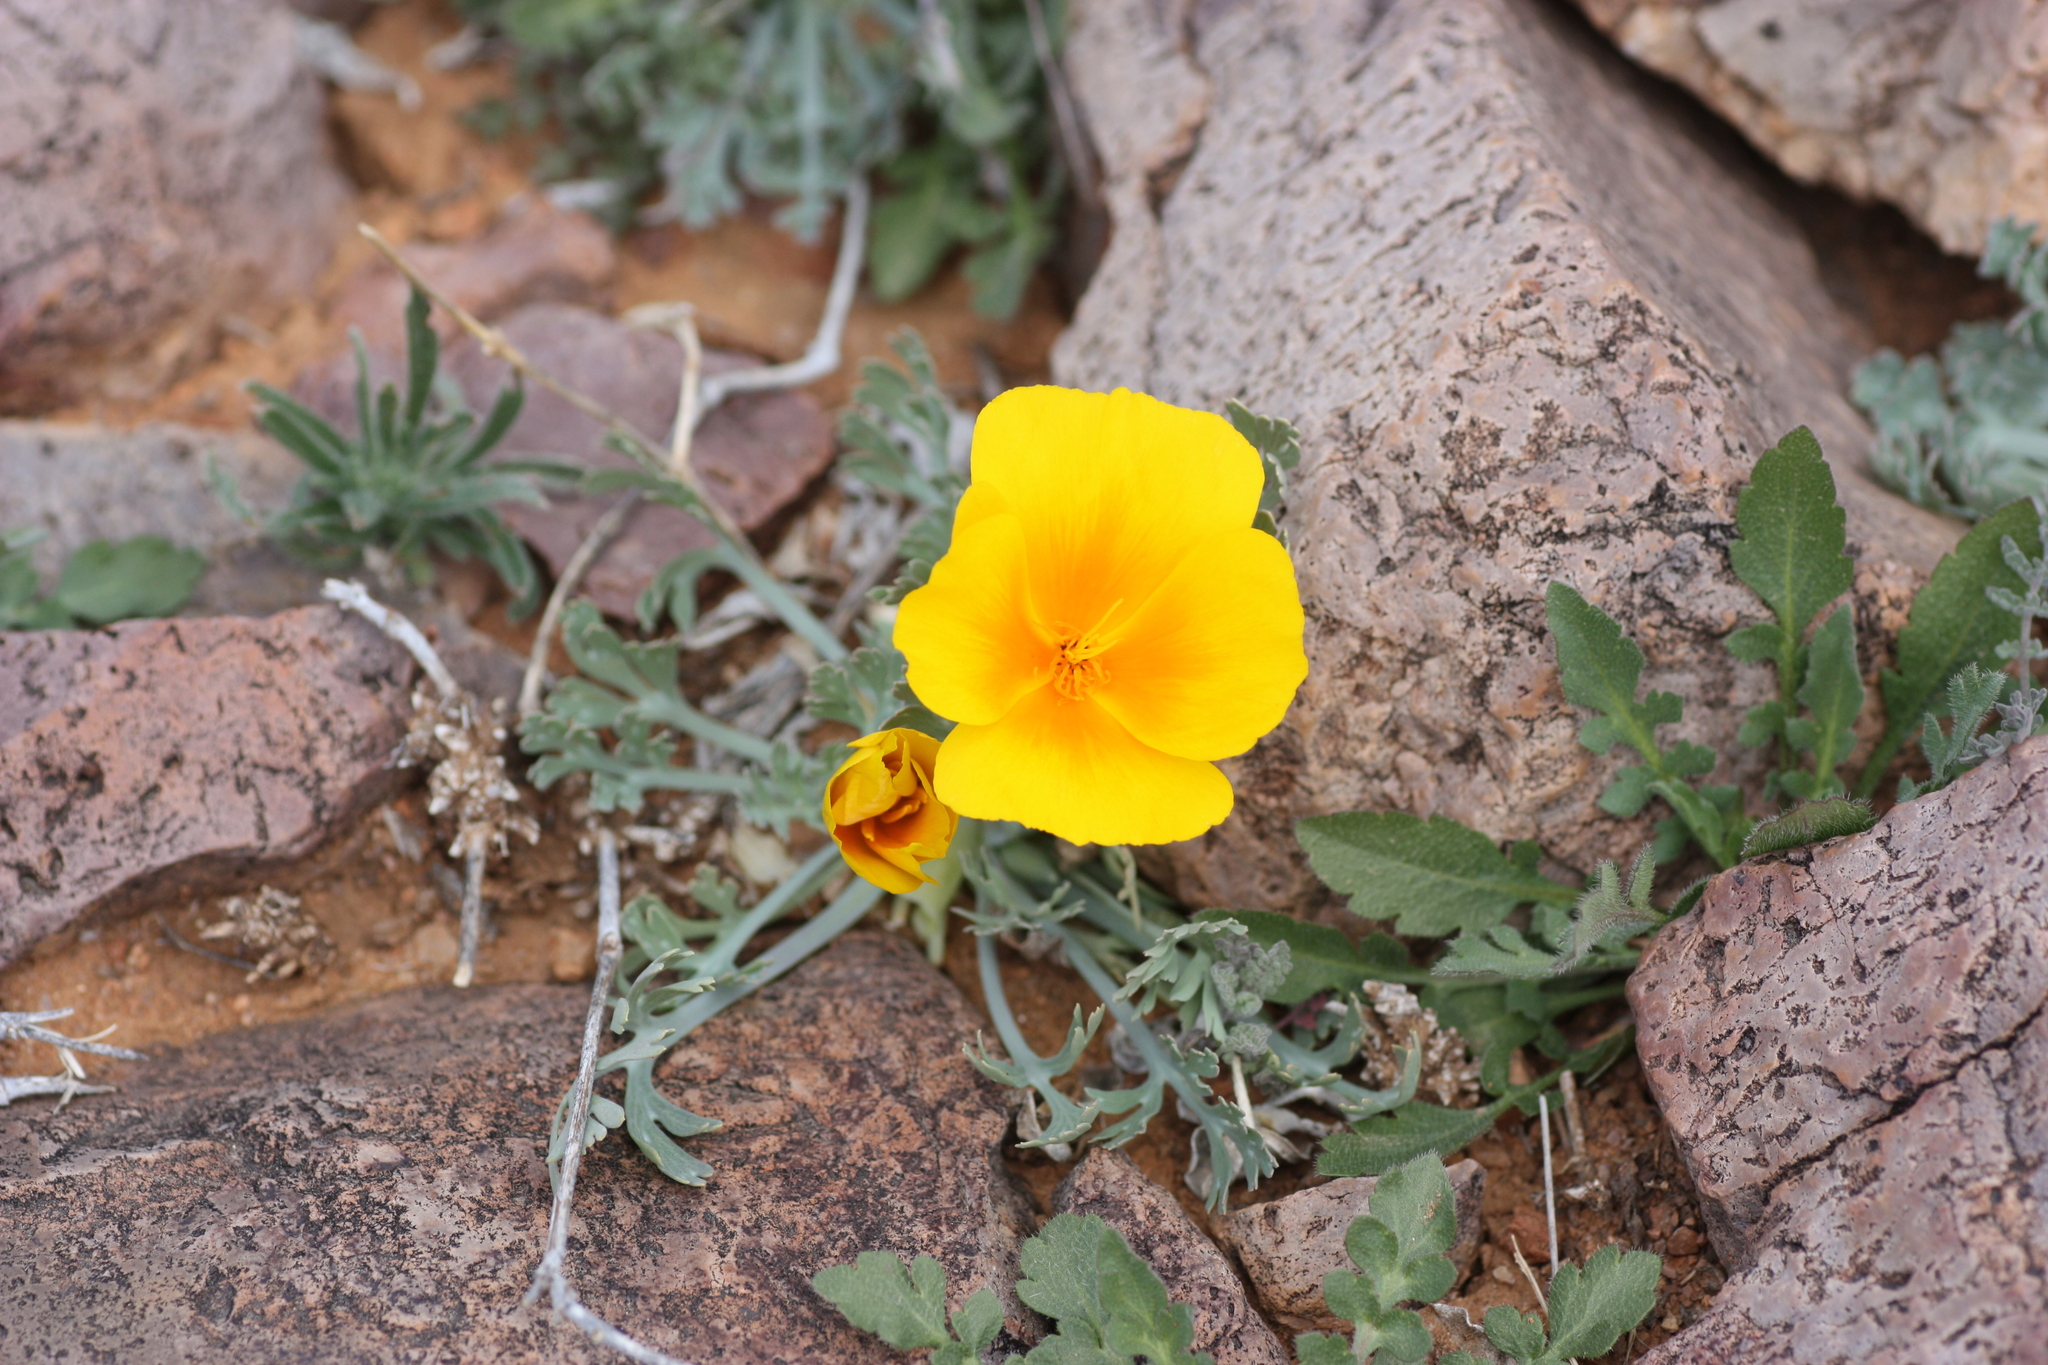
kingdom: Plantae
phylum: Tracheophyta
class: Magnoliopsida
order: Ranunculales
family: Papaveraceae
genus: Eschscholzia
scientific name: Eschscholzia californica
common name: California poppy
